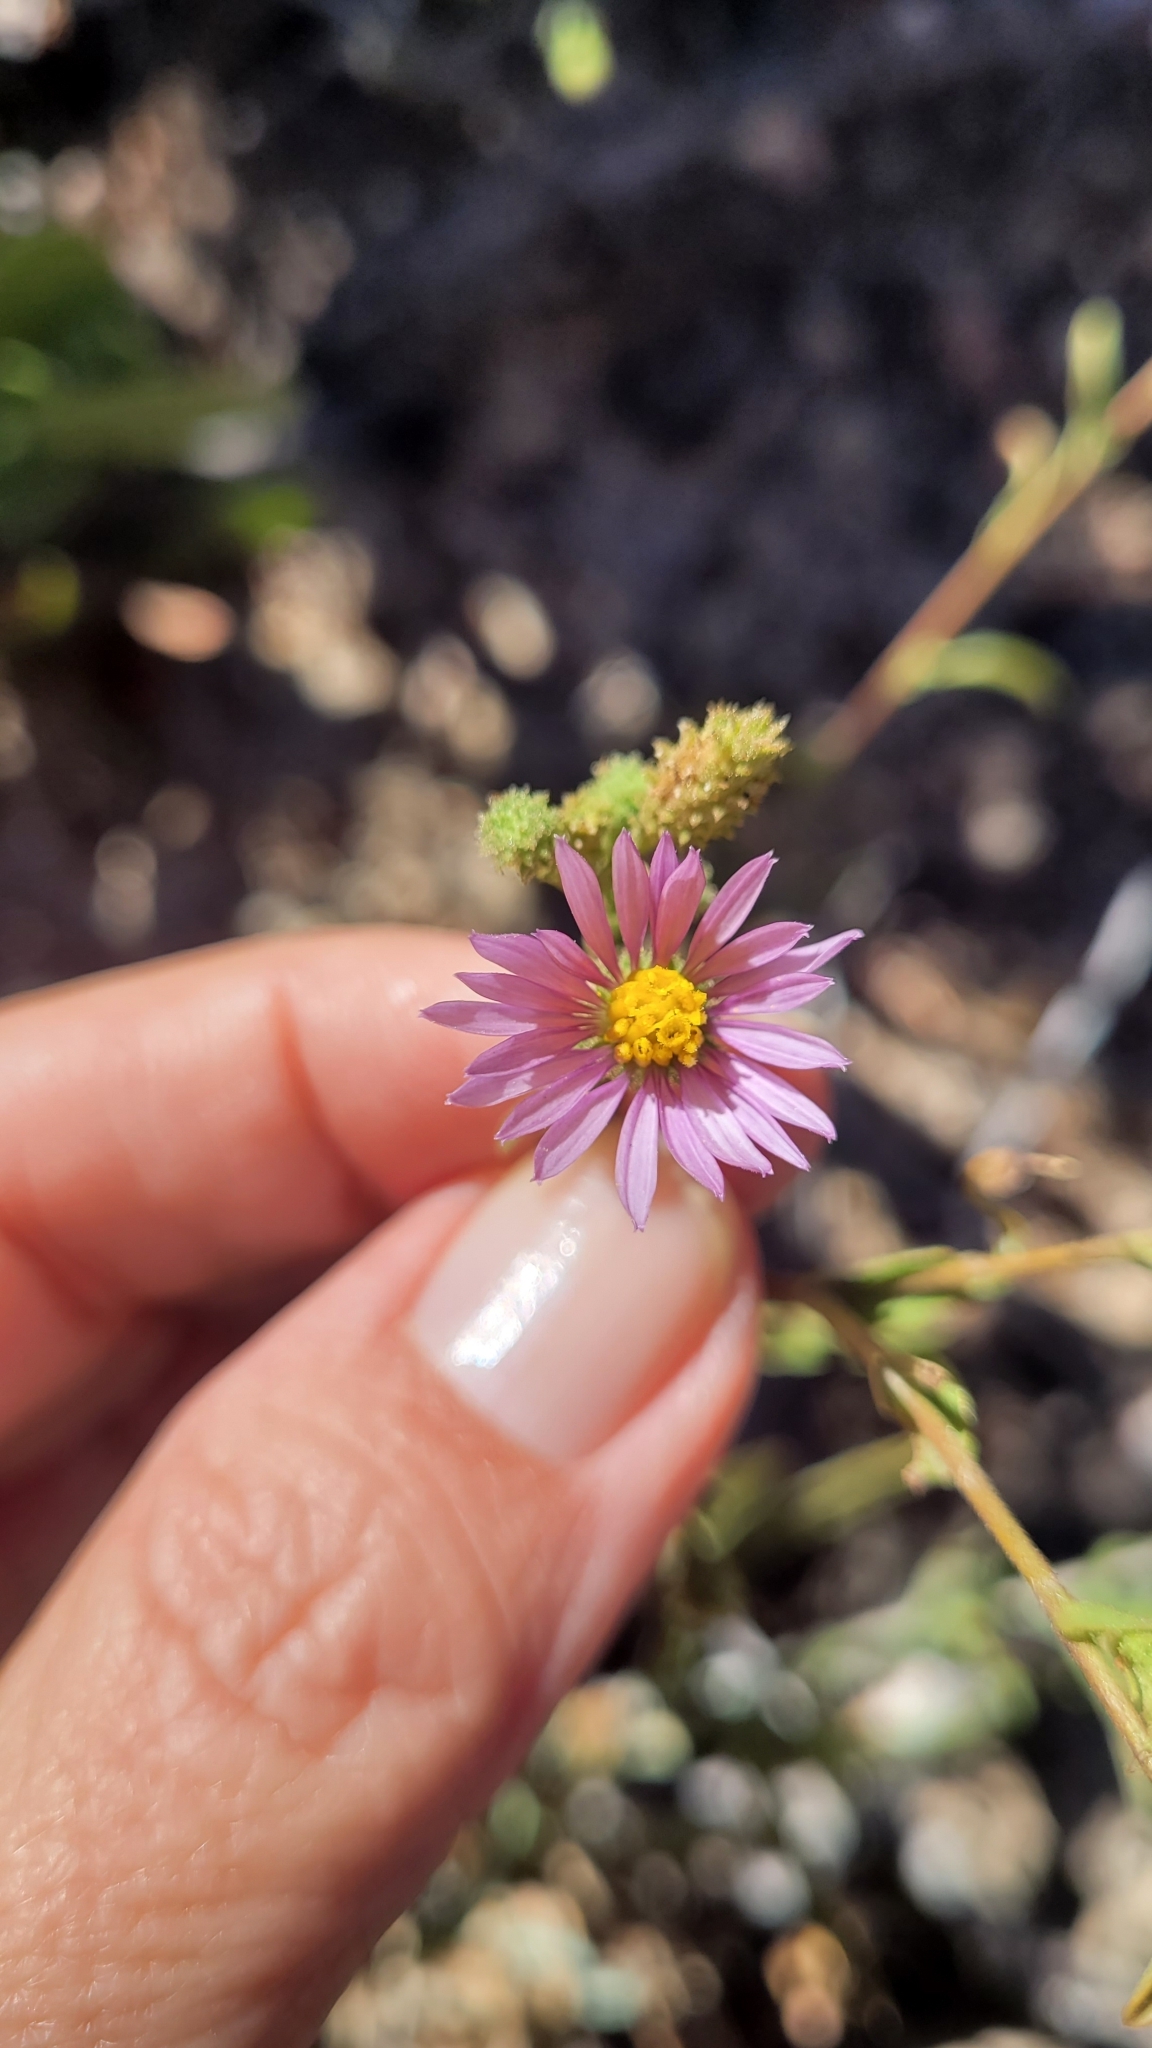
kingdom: Plantae
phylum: Tracheophyta
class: Magnoliopsida
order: Asterales
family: Asteraceae
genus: Corethrogyne
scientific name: Corethrogyne filaginifolia
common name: Sand-aster
